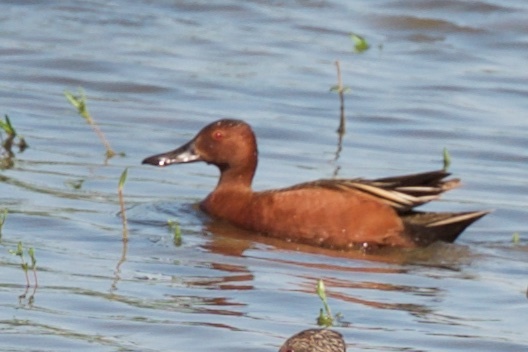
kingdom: Animalia
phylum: Chordata
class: Aves
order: Anseriformes
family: Anatidae
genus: Spatula
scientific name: Spatula cyanoptera
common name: Cinnamon teal
